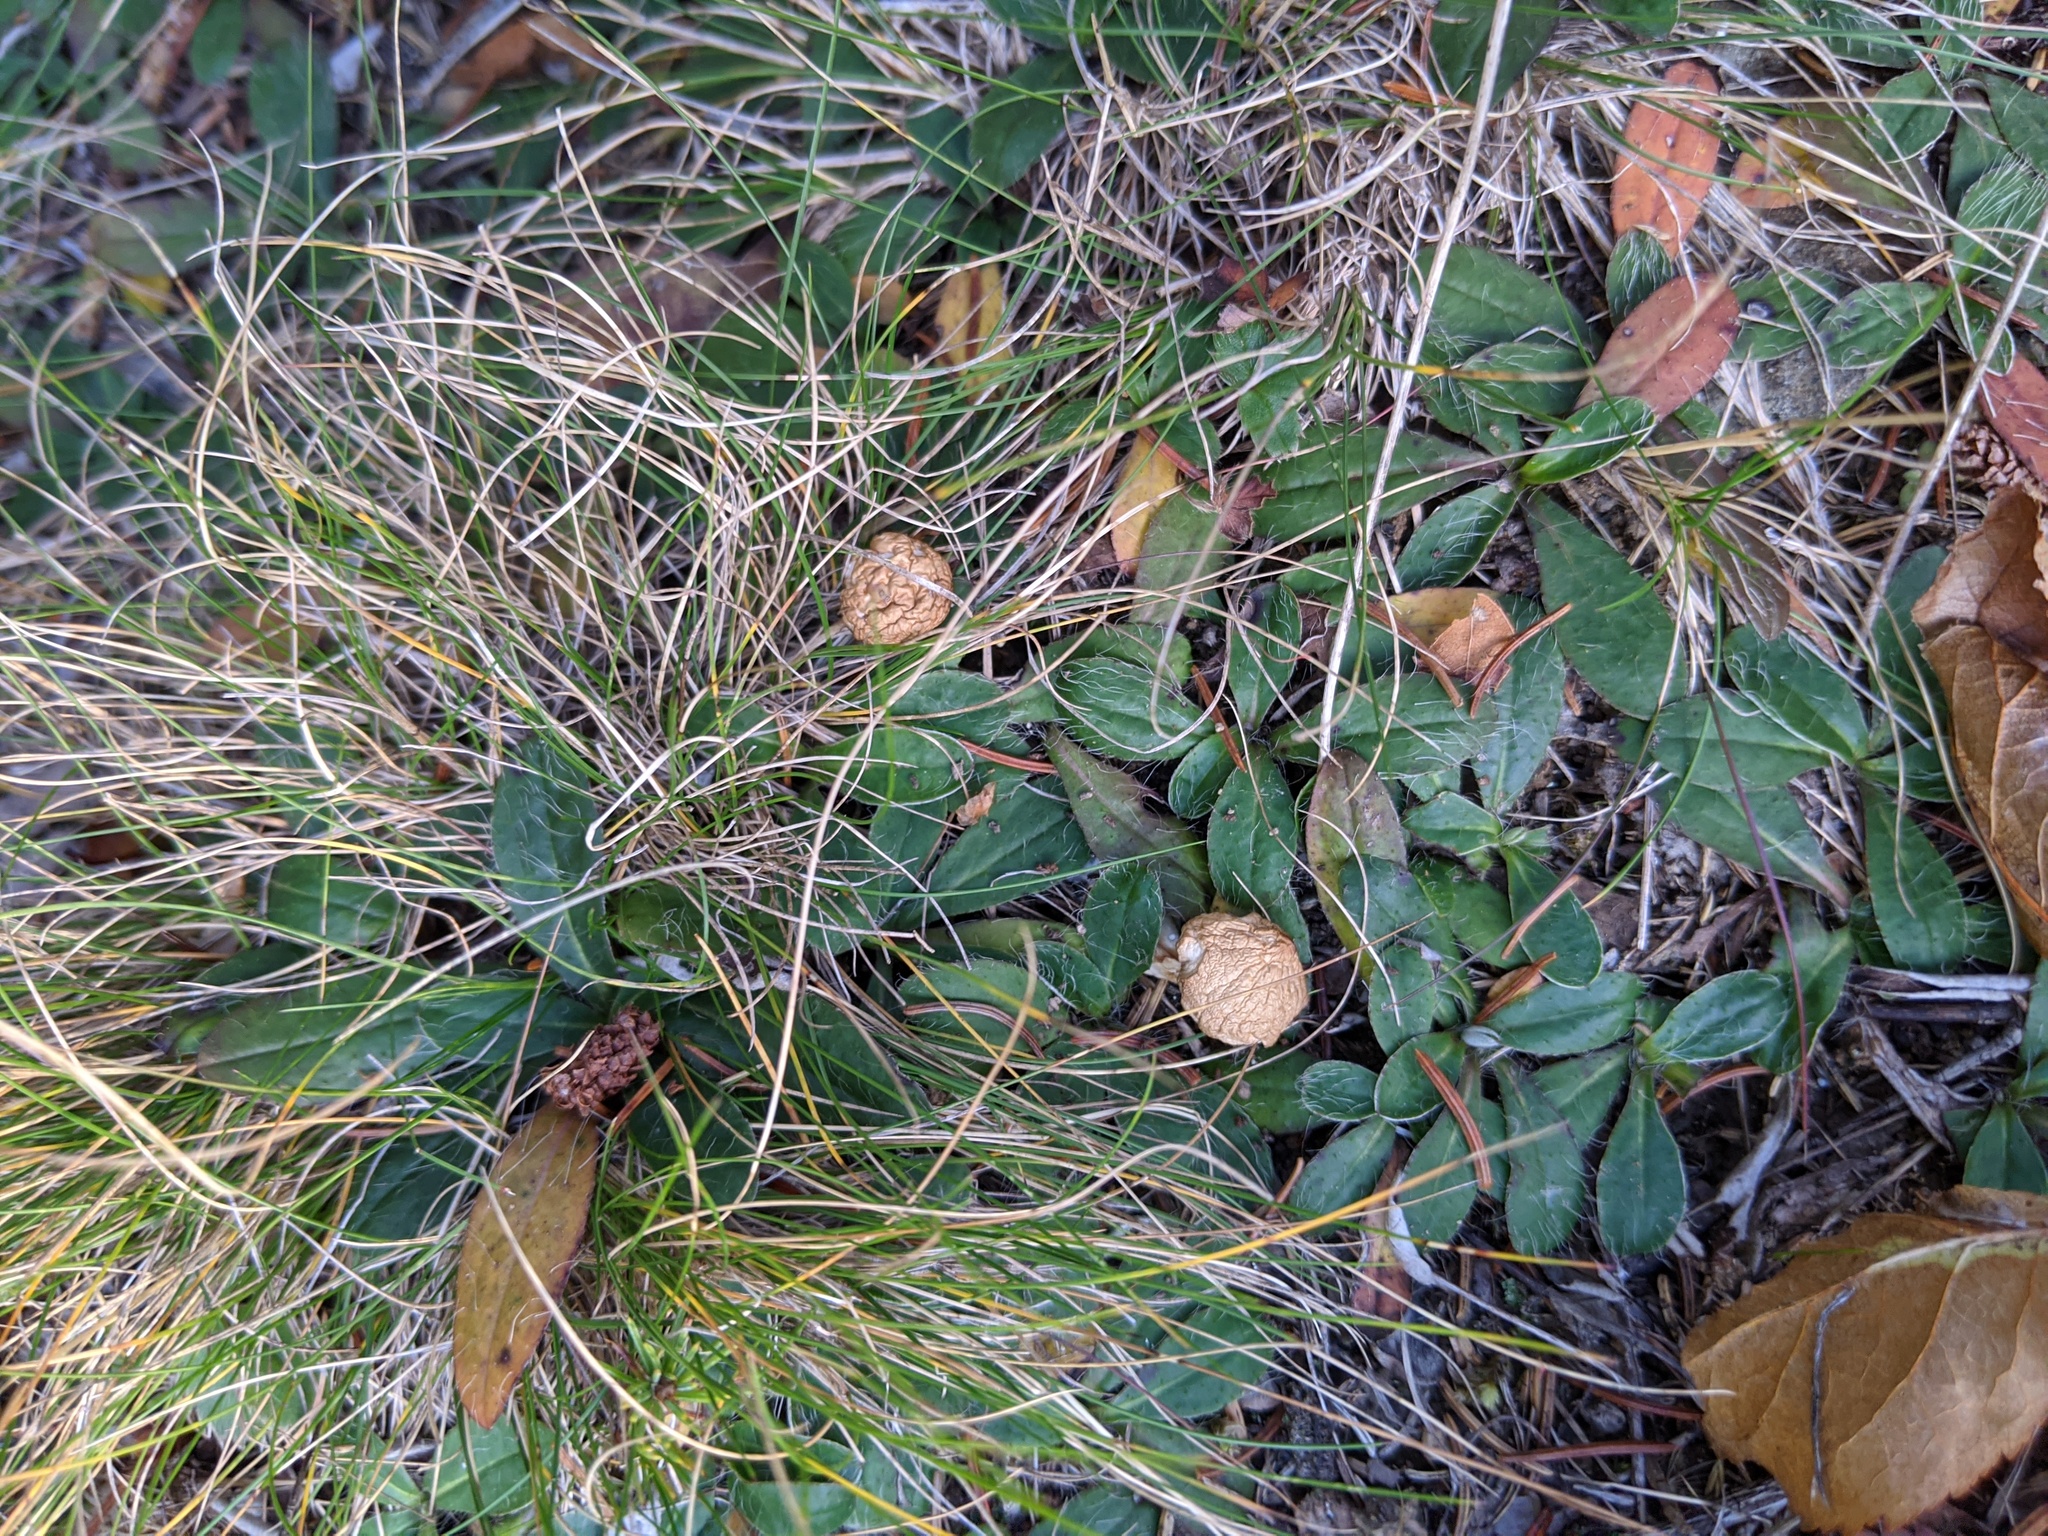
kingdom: Animalia
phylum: Chordata
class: Mammalia
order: Lagomorpha
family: Leporidae
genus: Lepus
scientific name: Lepus americanus
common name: Snowshoe hare
